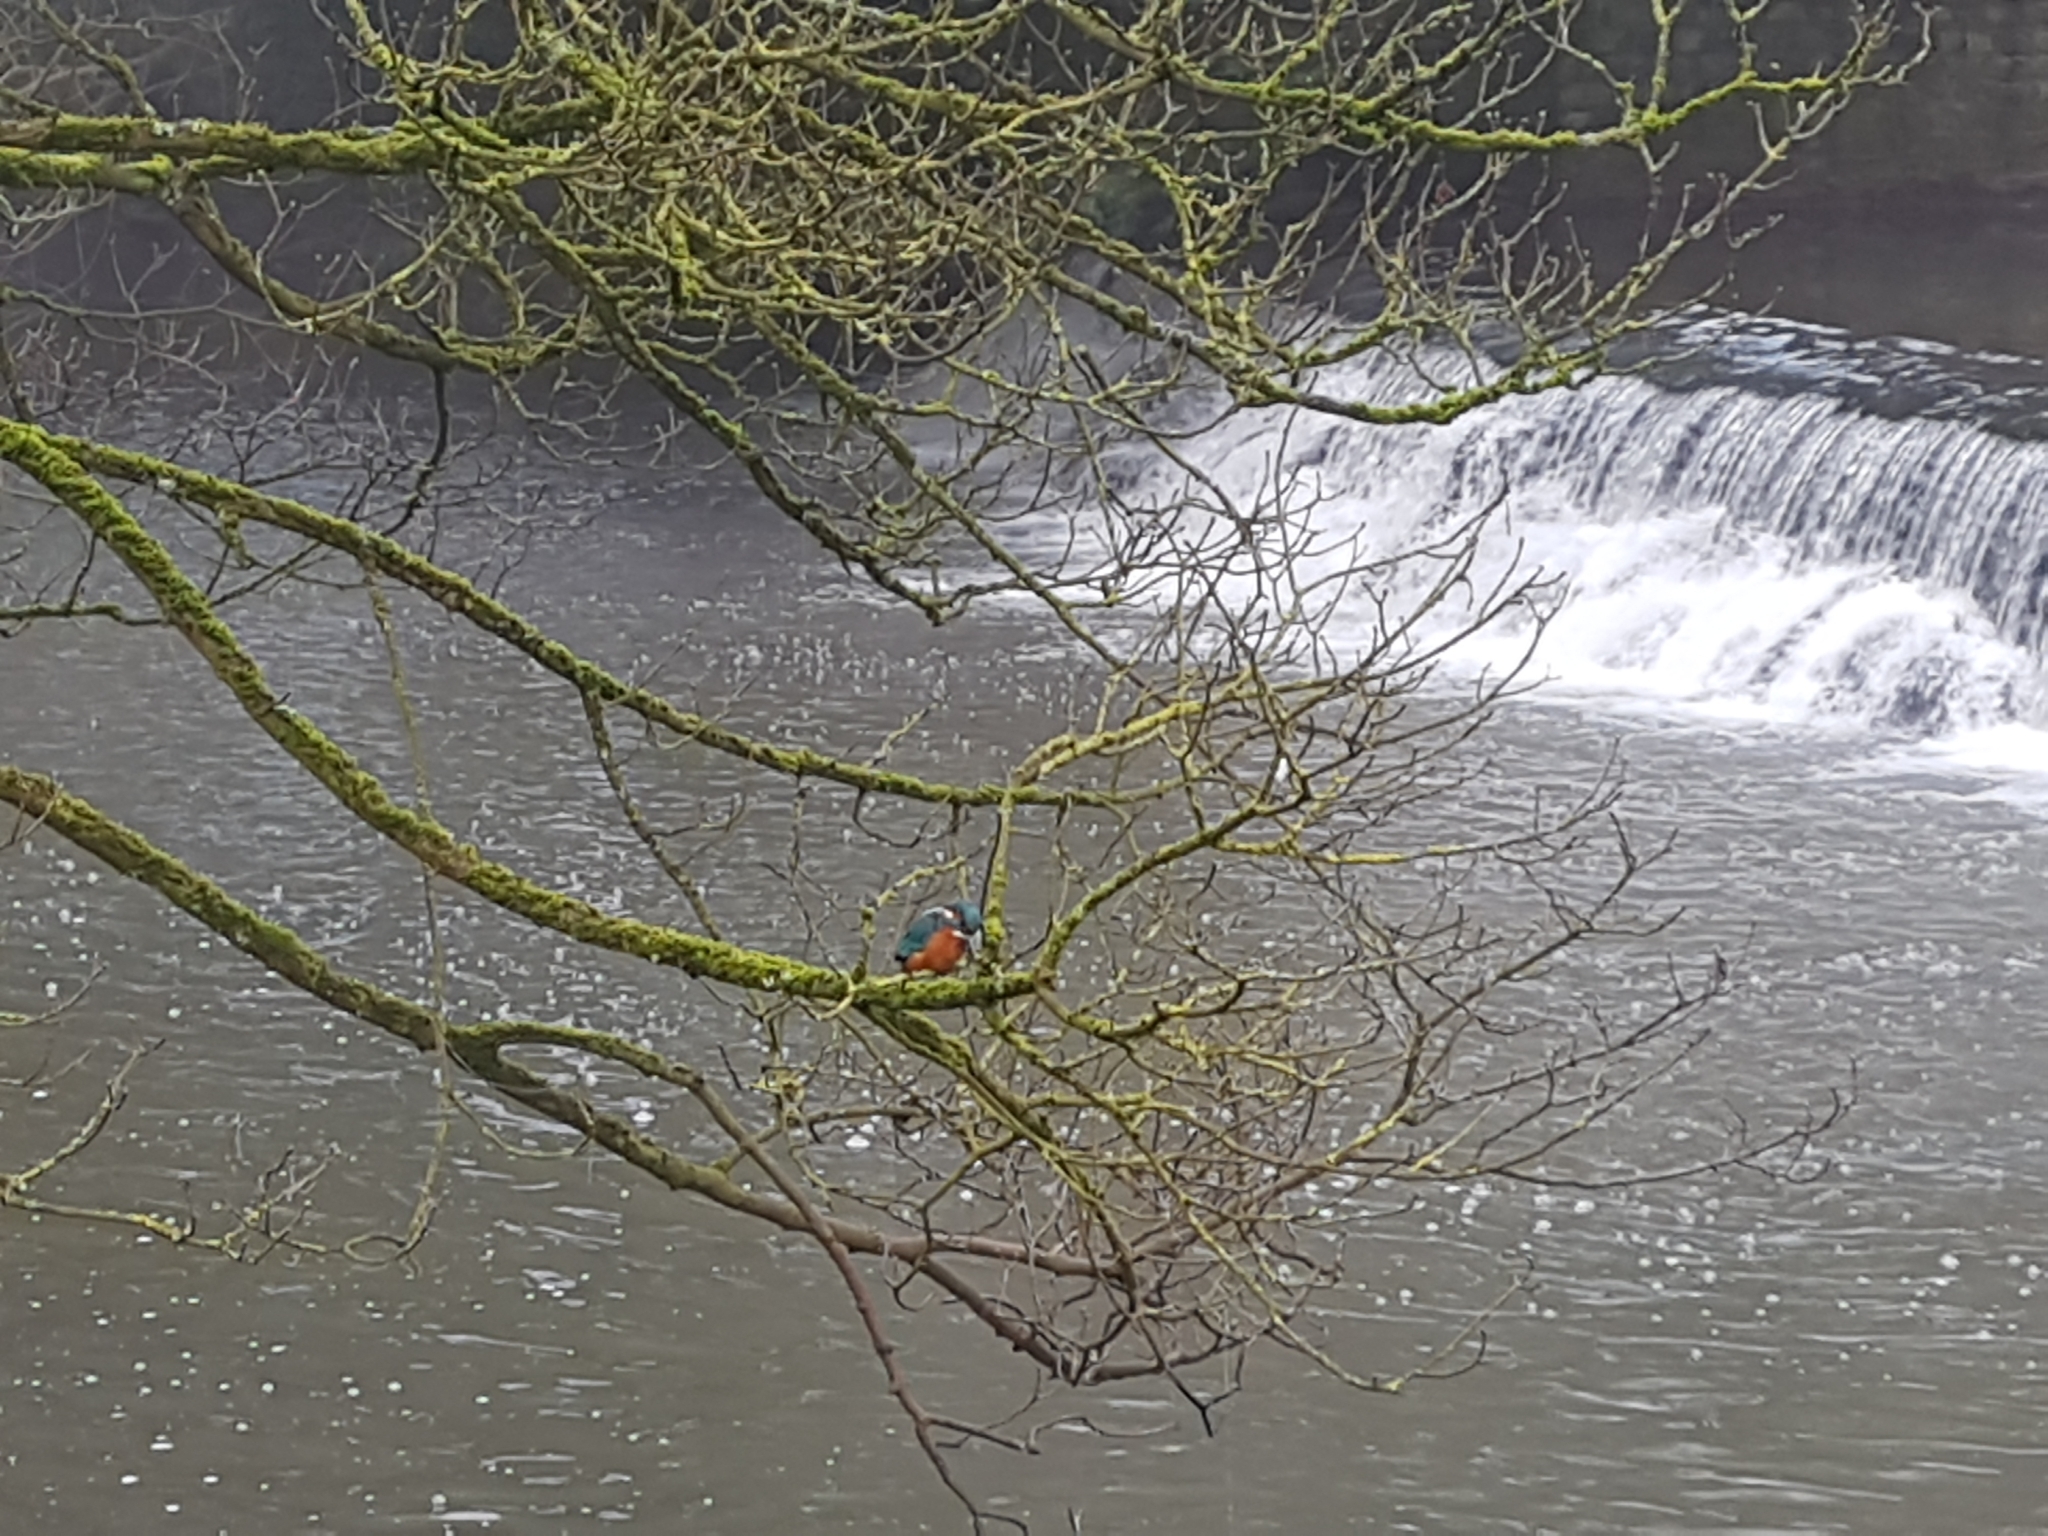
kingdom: Animalia
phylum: Chordata
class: Aves
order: Coraciiformes
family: Alcedinidae
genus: Alcedo
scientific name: Alcedo atthis
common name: Common kingfisher
